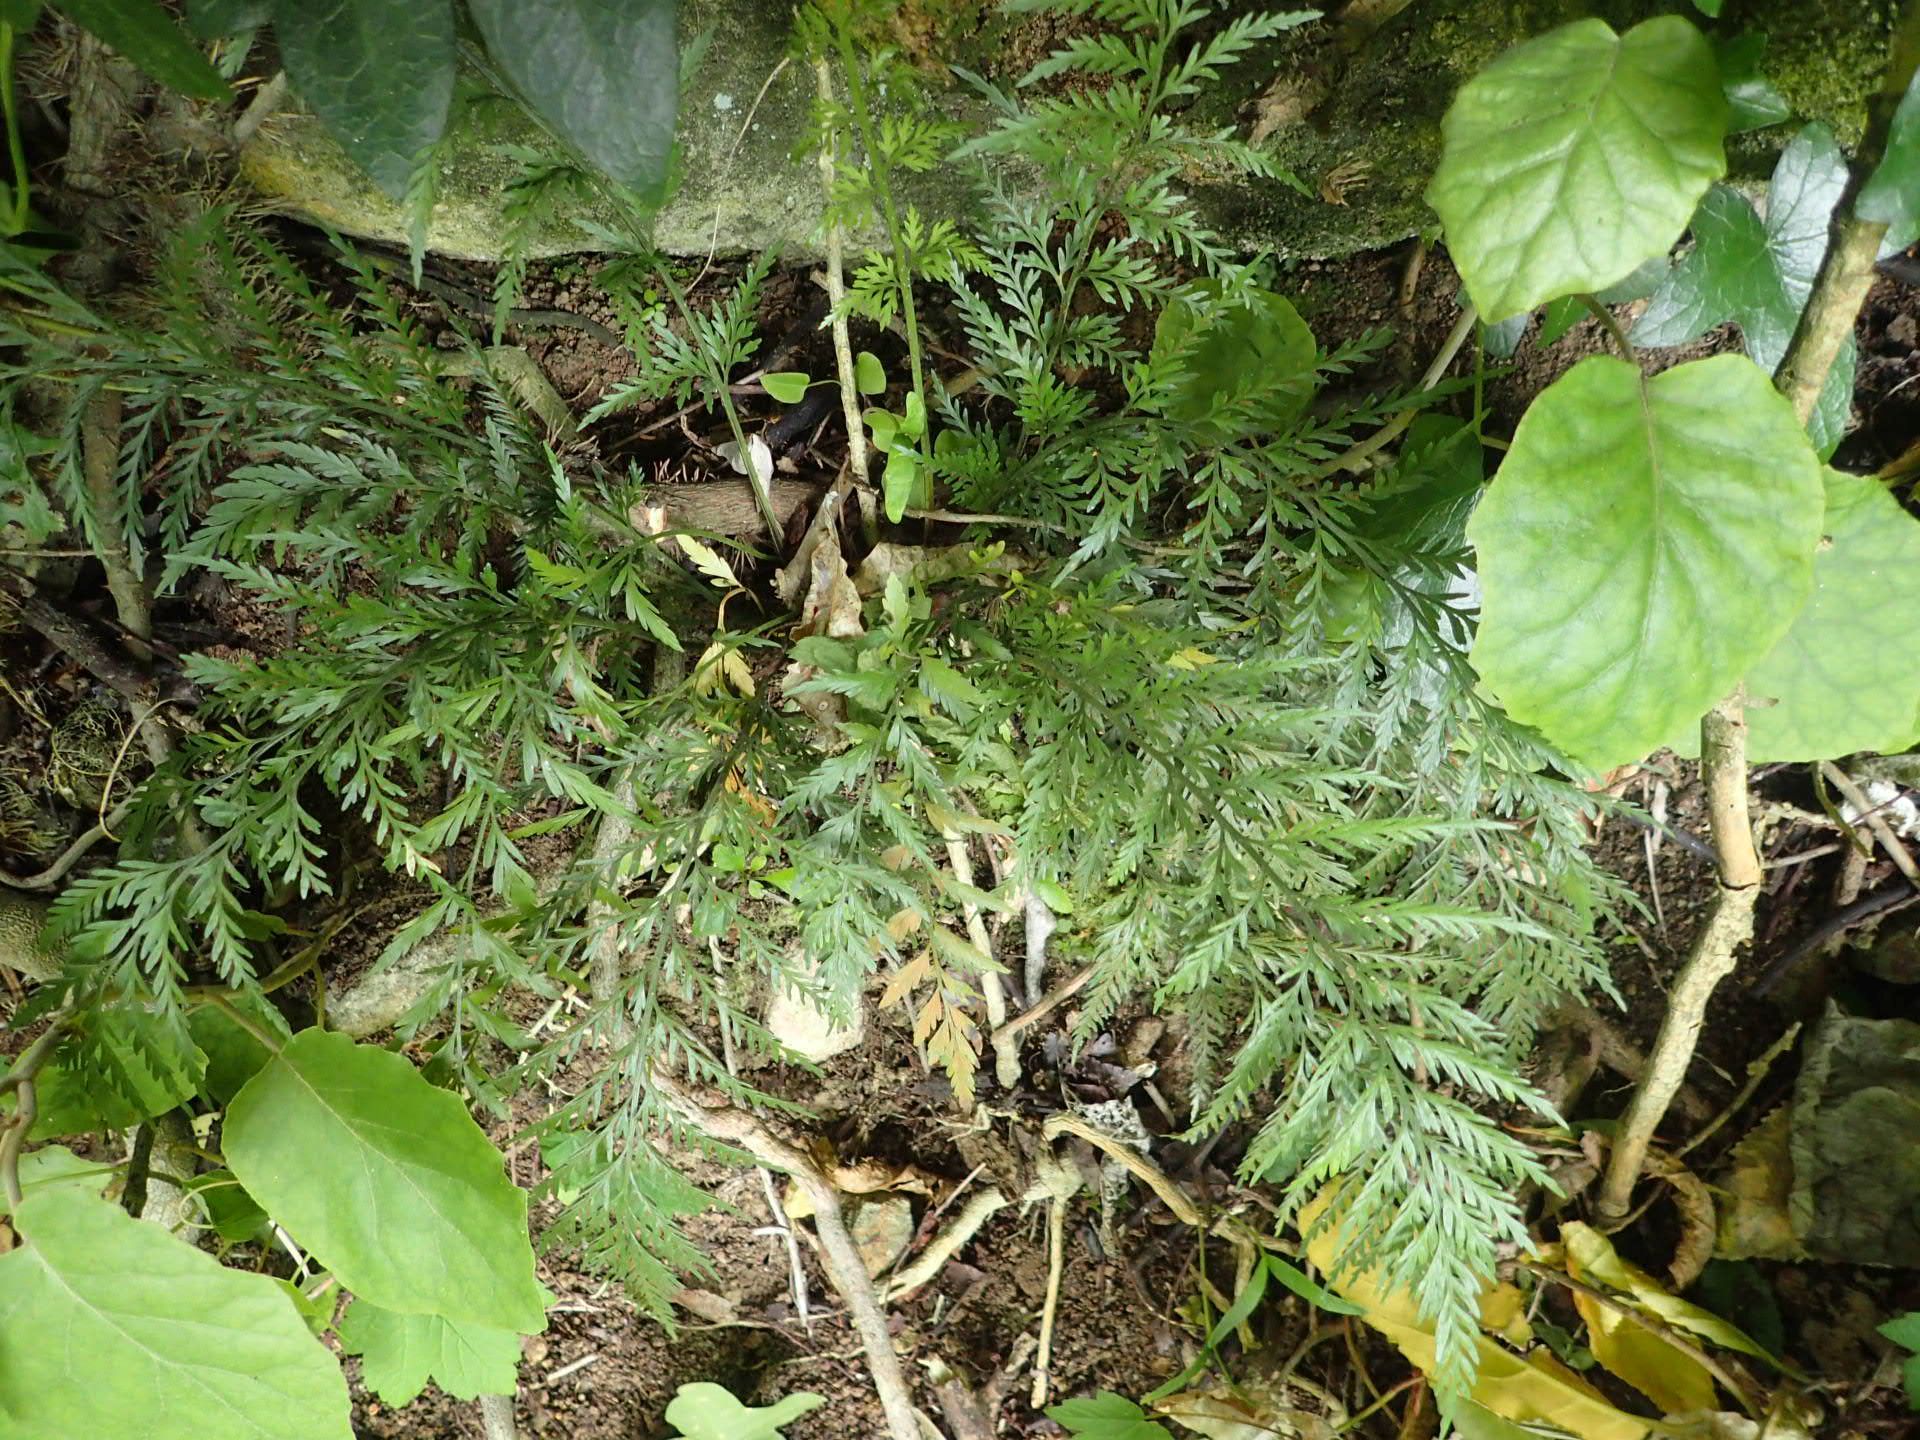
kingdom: Plantae
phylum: Tracheophyta
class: Polypodiopsida
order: Polypodiales
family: Aspleniaceae
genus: Asplenium
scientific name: Asplenium appendiculatum
